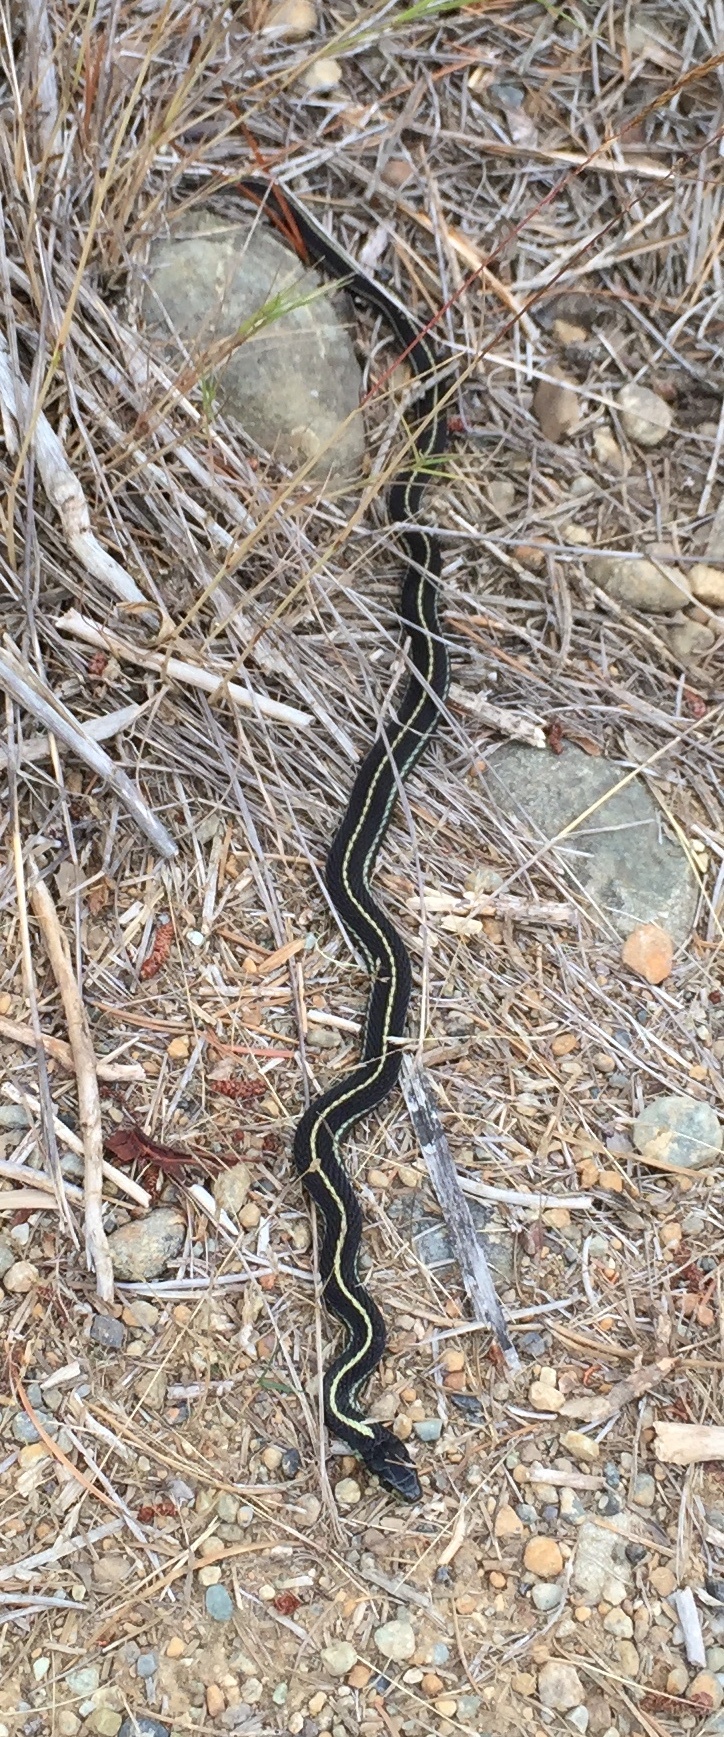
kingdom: Animalia
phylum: Chordata
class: Squamata
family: Colubridae
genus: Thamnophis
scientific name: Thamnophis sirtalis
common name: Common garter snake
